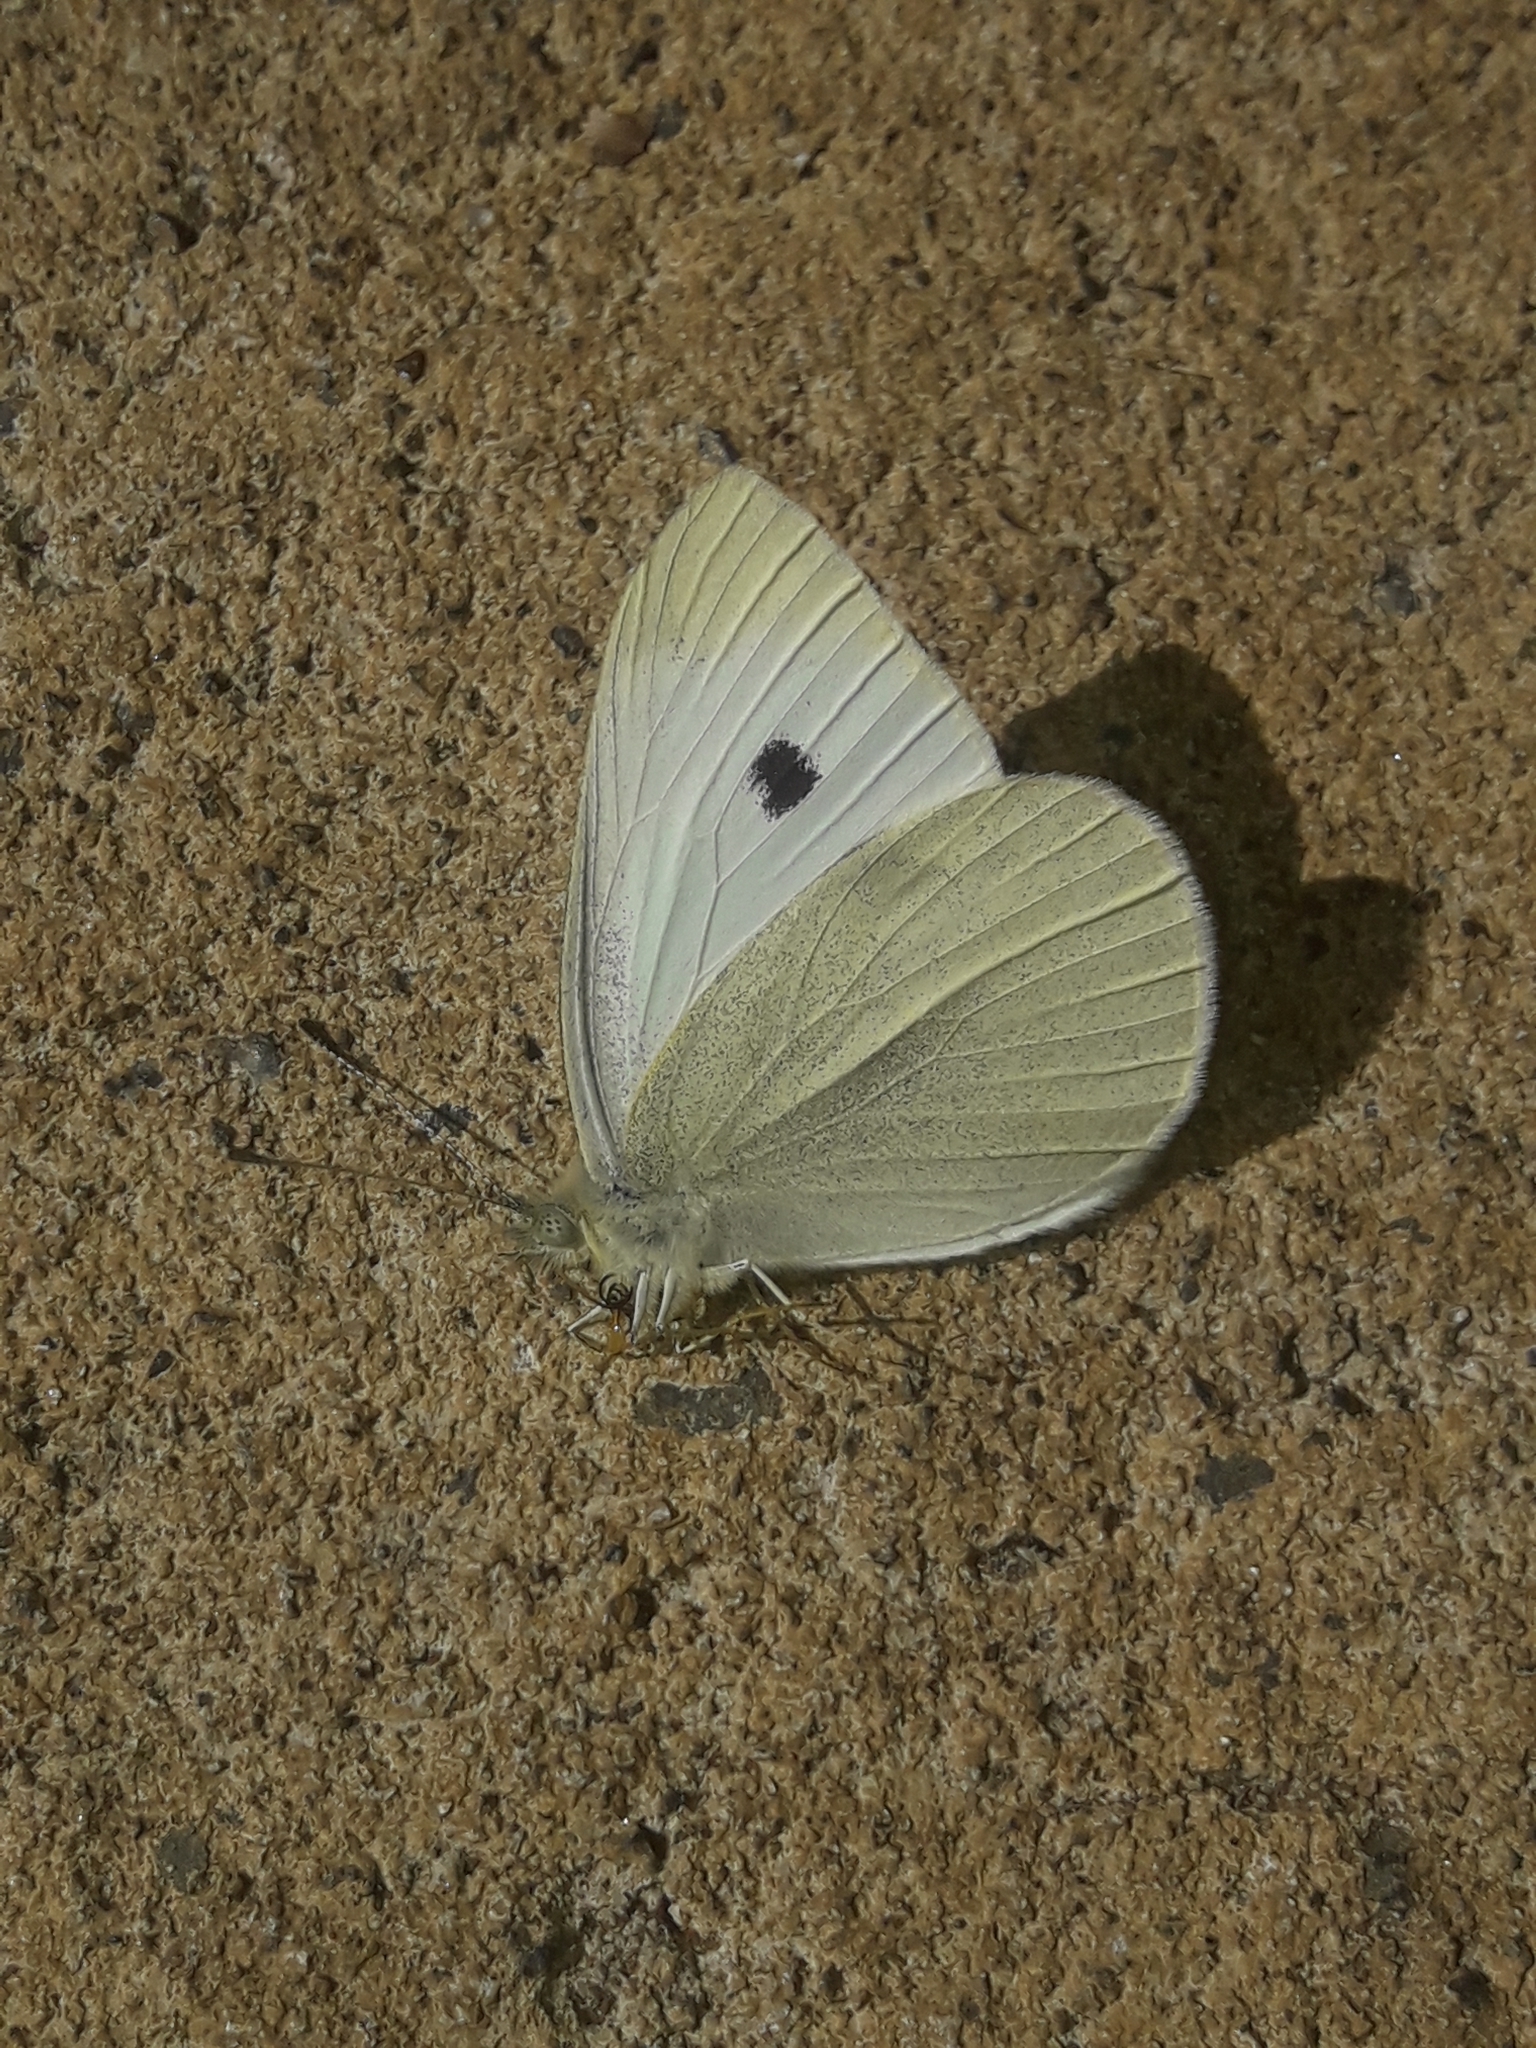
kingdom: Animalia
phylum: Arthropoda
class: Insecta
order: Lepidoptera
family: Pieridae
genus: Pieris
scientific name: Pieris rapae
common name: Small white
